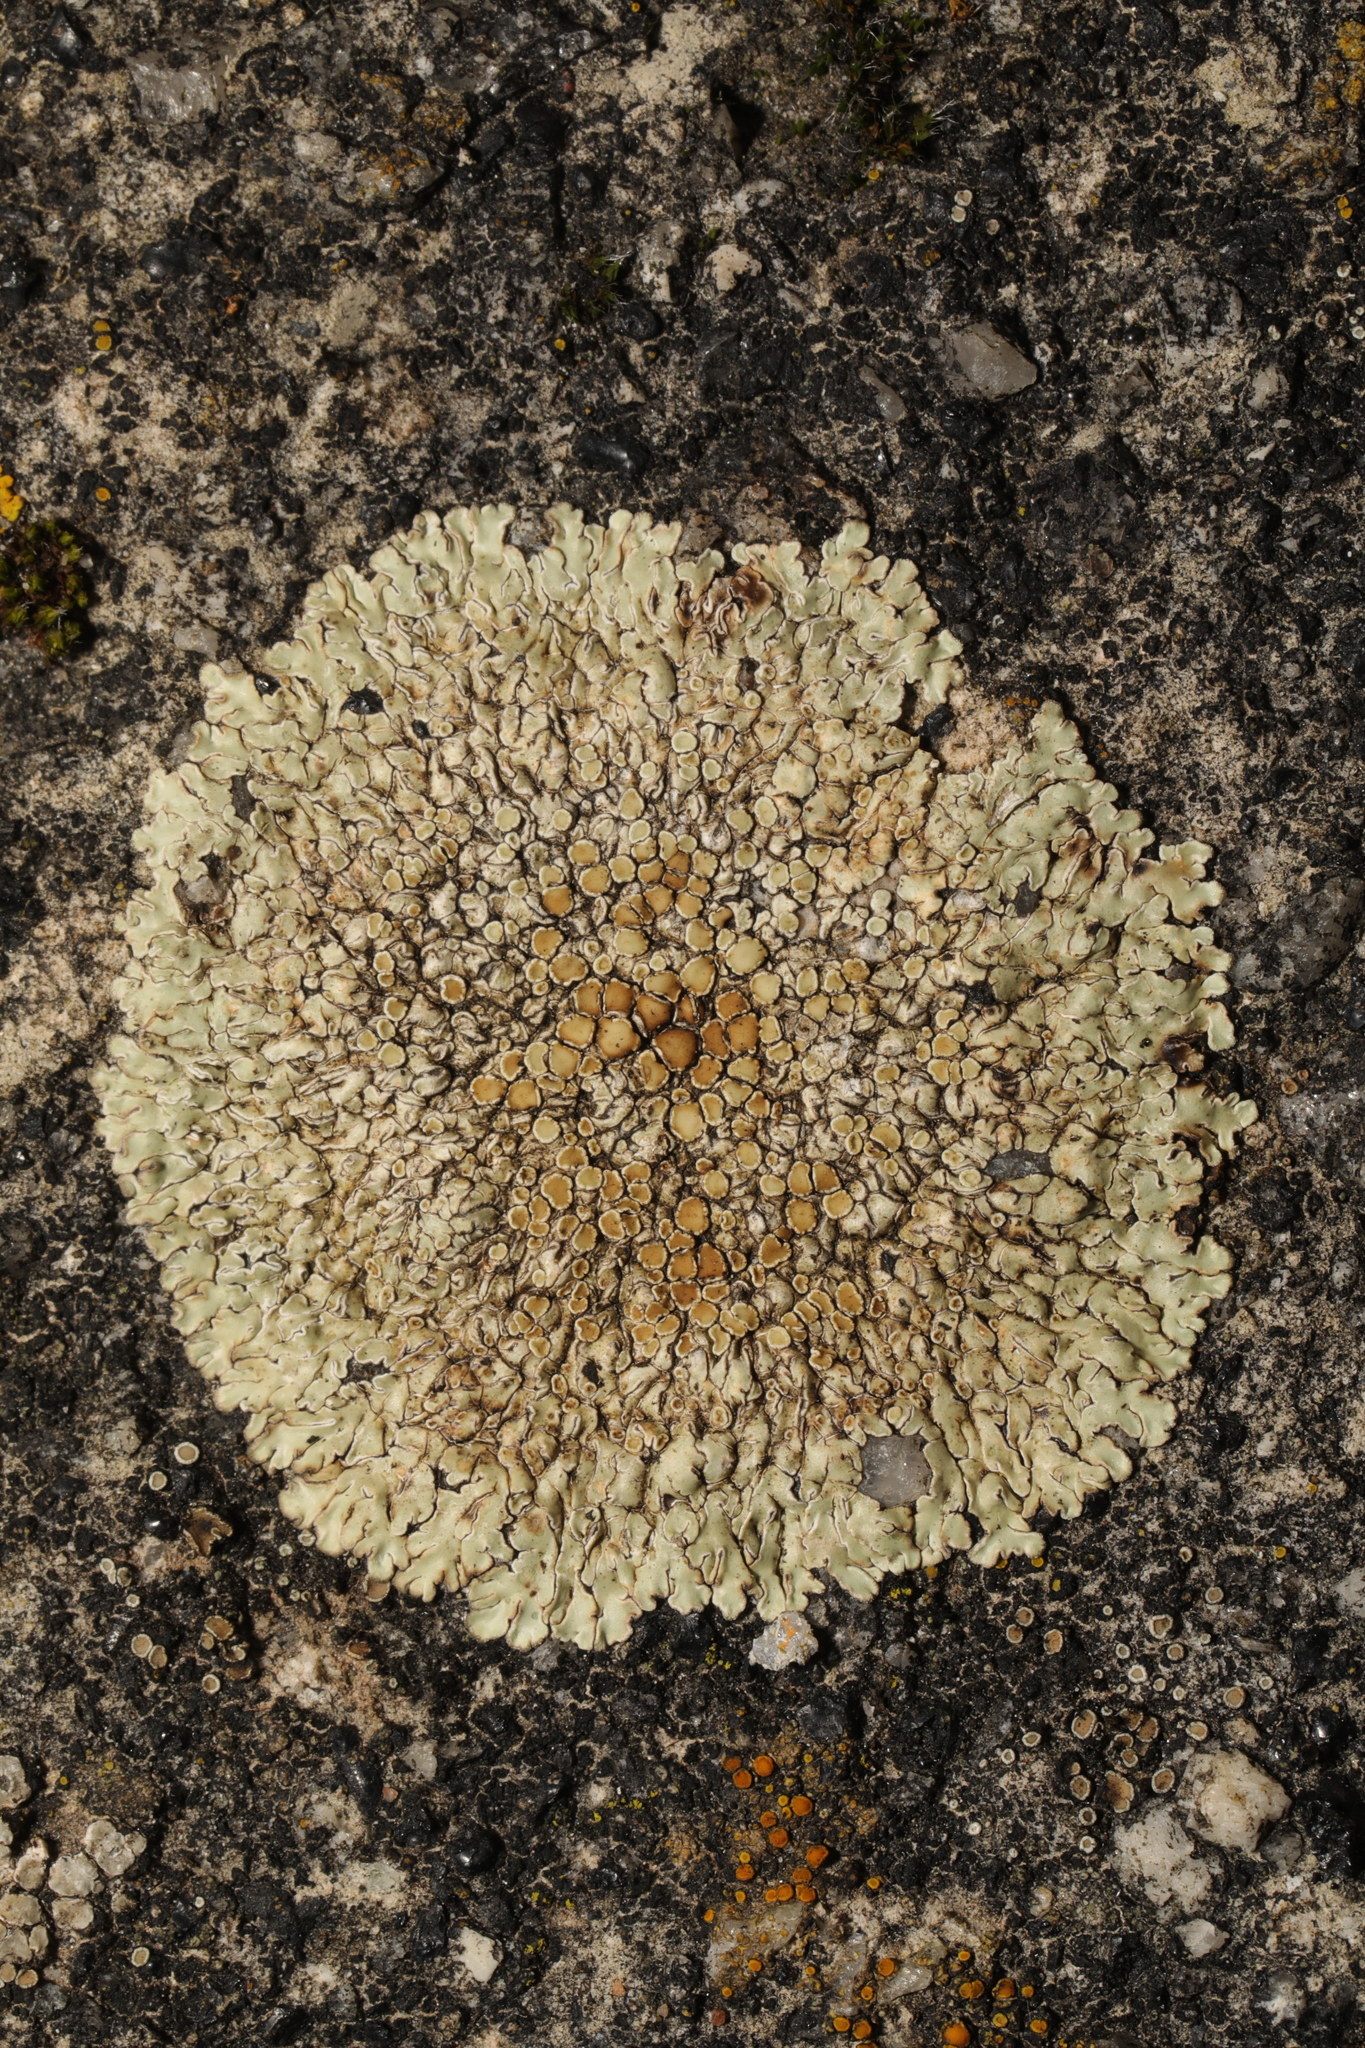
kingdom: Fungi
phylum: Ascomycota
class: Lecanoromycetes
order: Lecanorales
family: Lecanoraceae
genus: Protoparmeliopsis
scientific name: Protoparmeliopsis muralis
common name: Stonewall rim lichen
